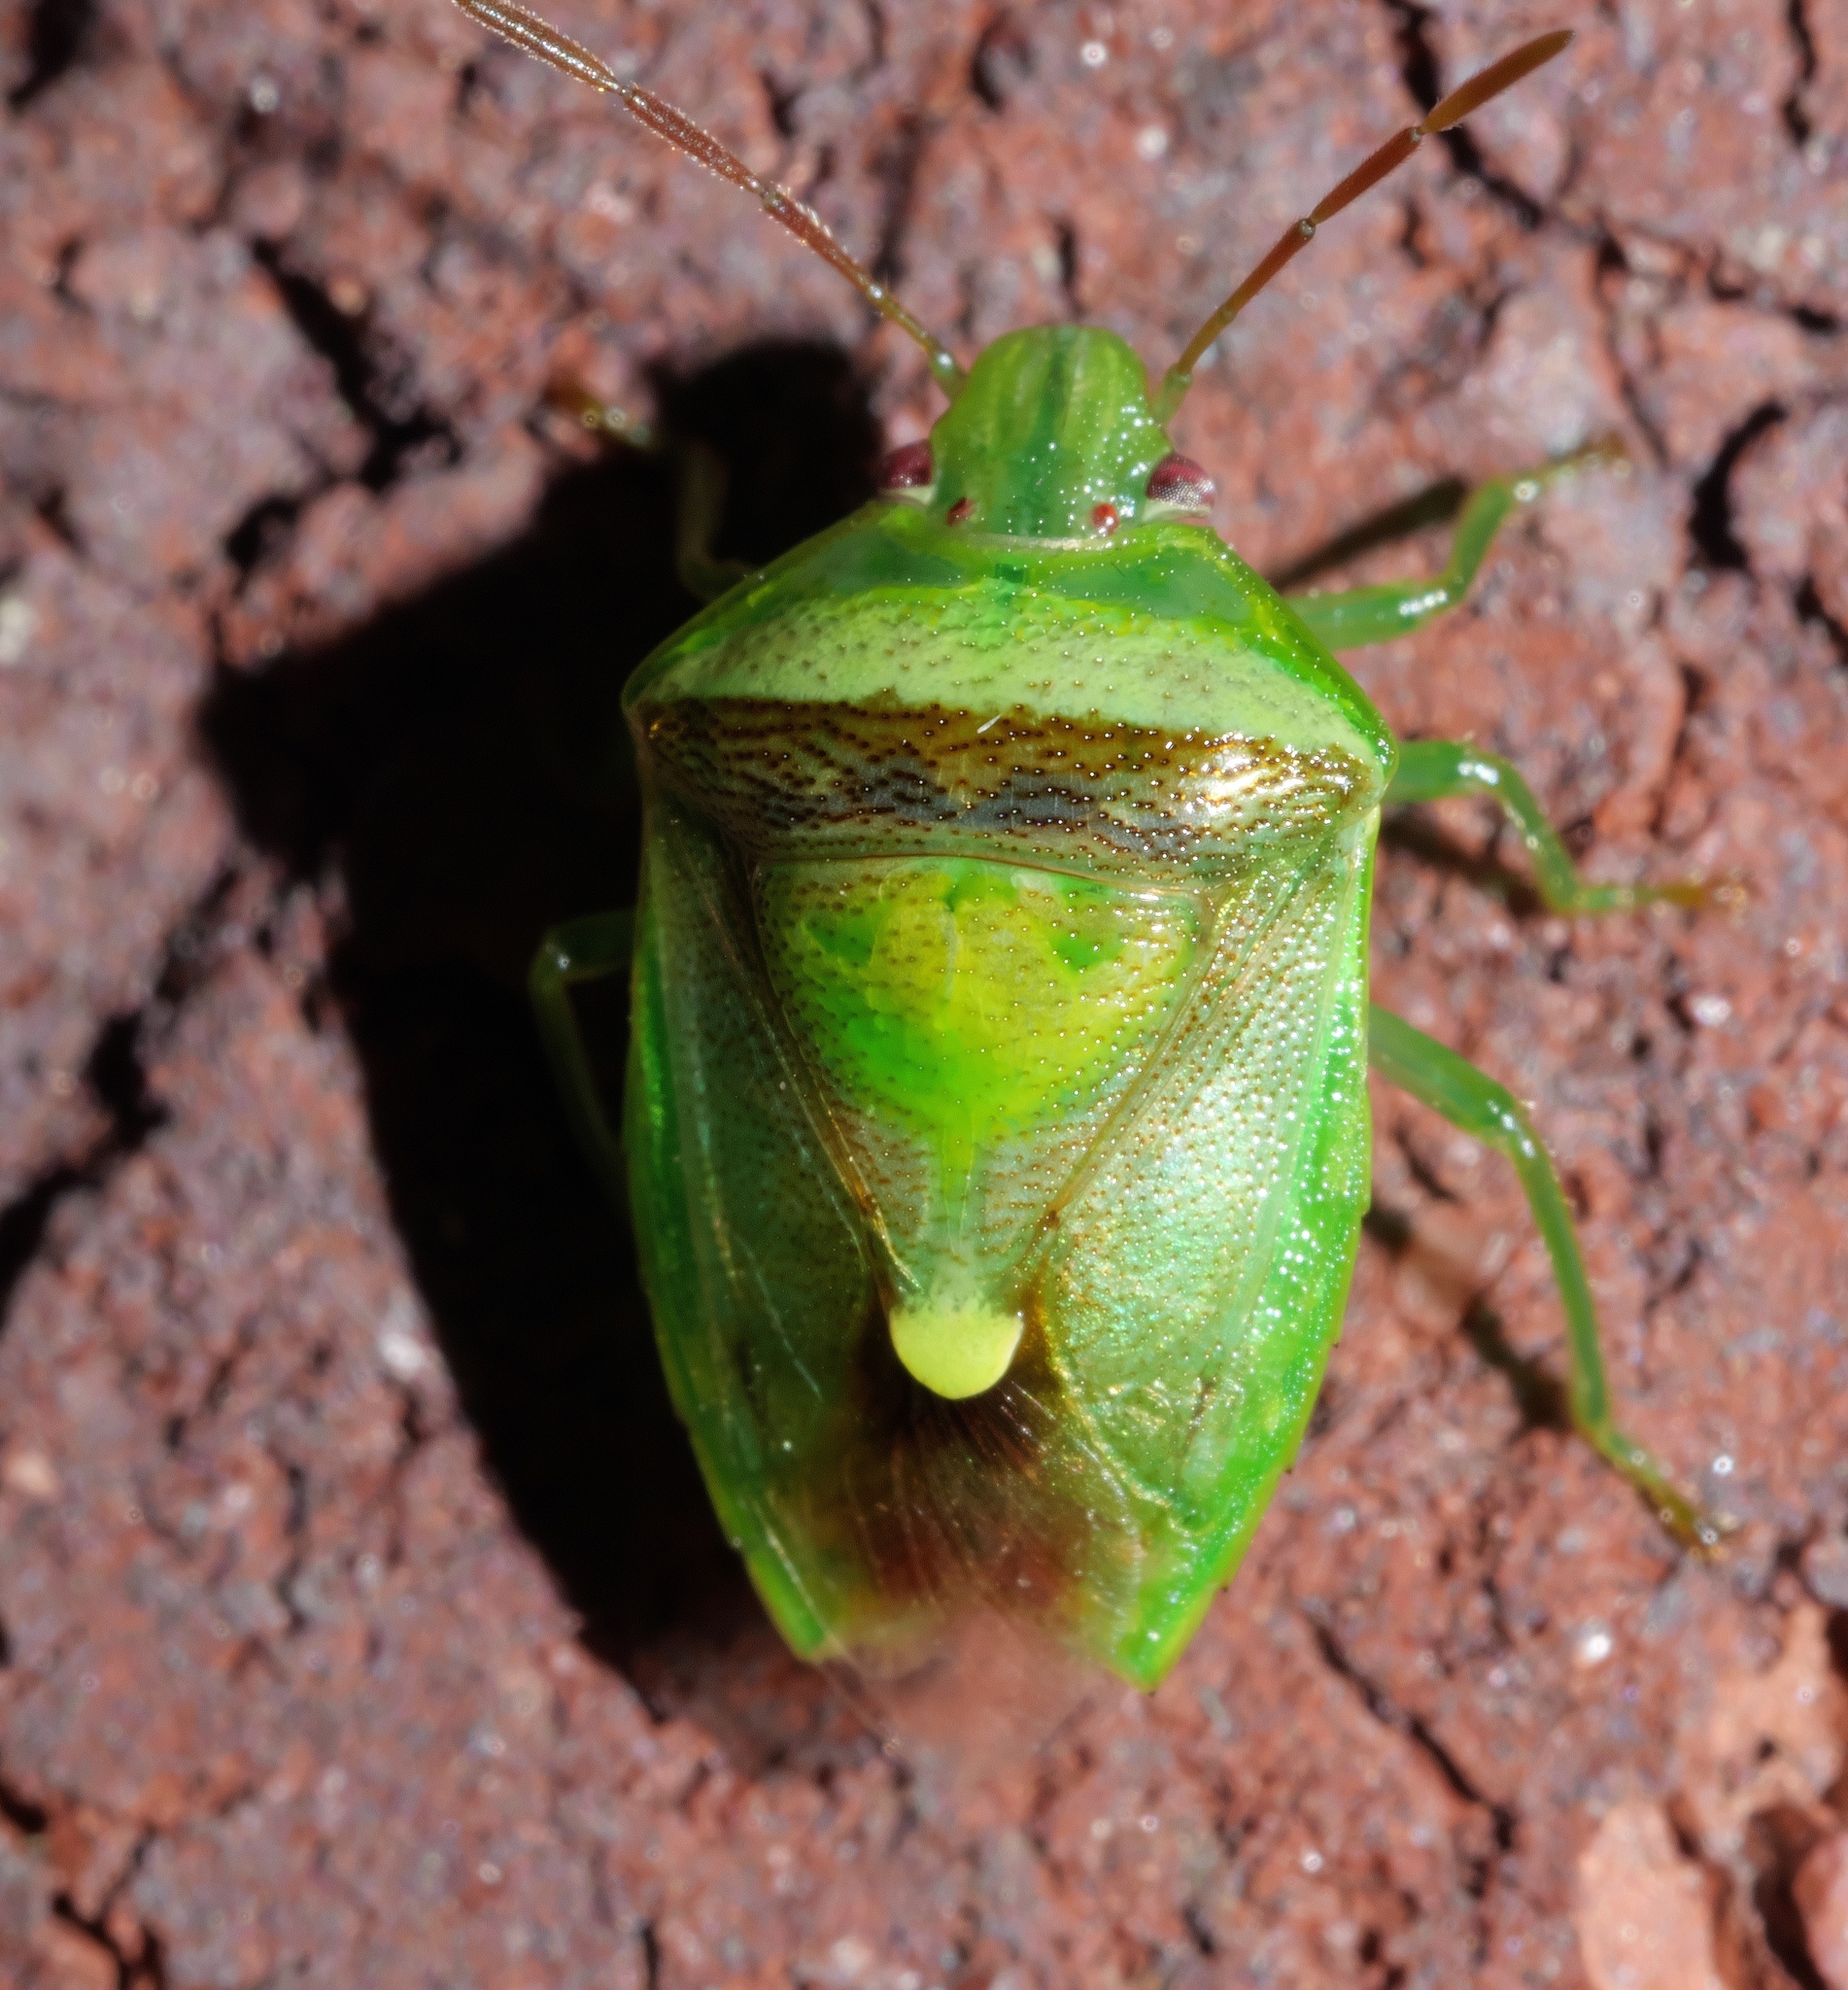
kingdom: Animalia
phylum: Arthropoda
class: Insecta
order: Hemiptera
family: Pentatomidae
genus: Banasa
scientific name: Banasa dimidiata
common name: Green burgundy stink bug
